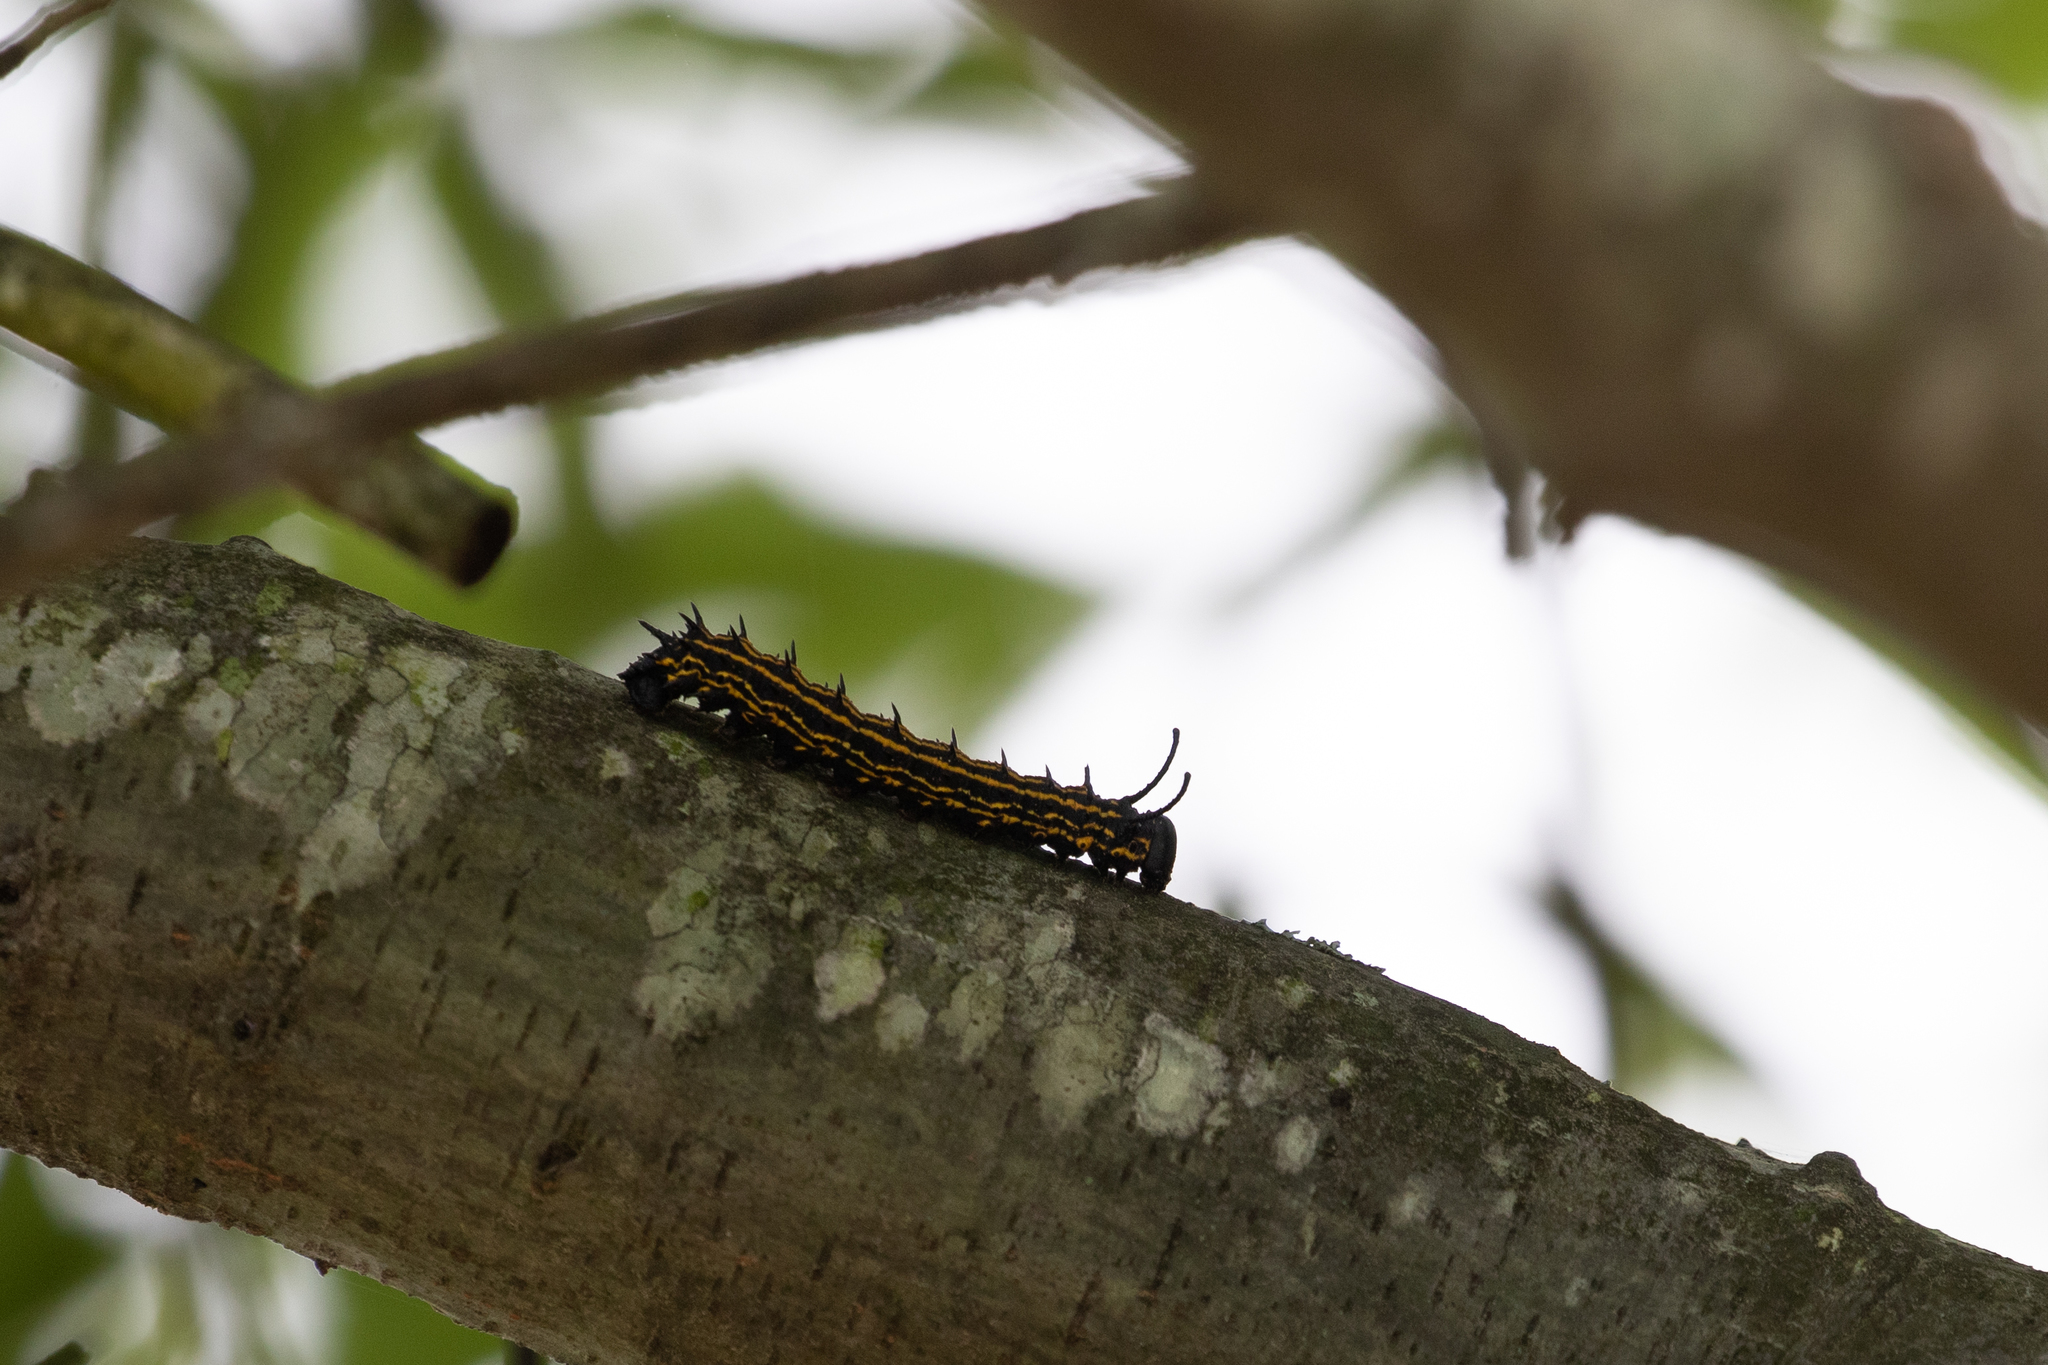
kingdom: Animalia
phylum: Arthropoda
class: Insecta
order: Lepidoptera
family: Saturniidae
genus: Anisota
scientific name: Anisota peigleri
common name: Peigler's oakworm moth
